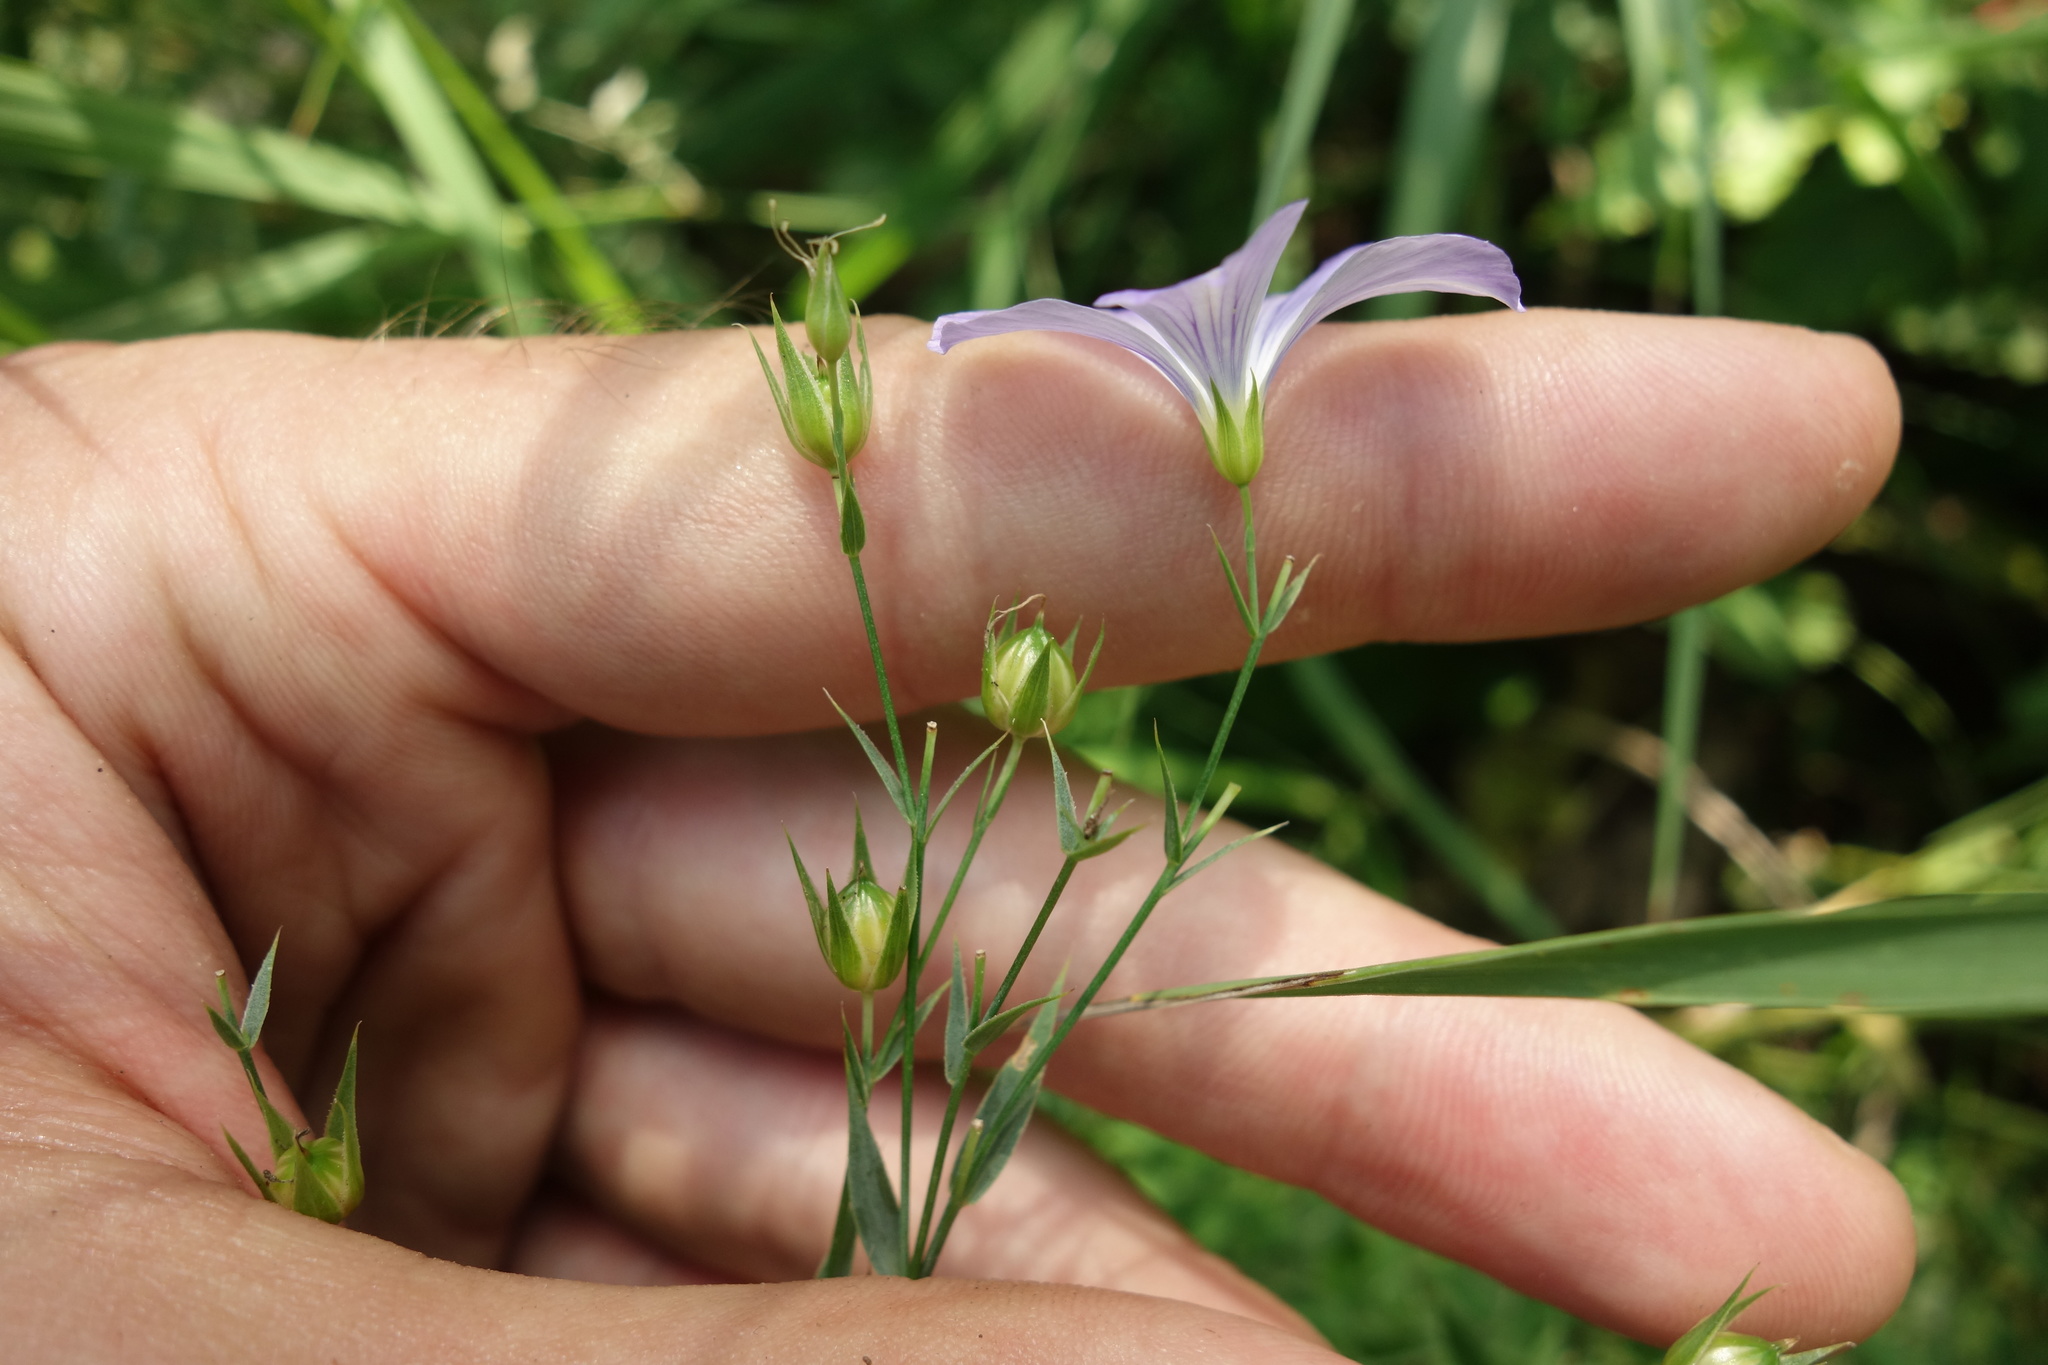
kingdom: Plantae
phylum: Tracheophyta
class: Magnoliopsida
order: Malpighiales
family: Linaceae
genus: Linum
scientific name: Linum nervosum
